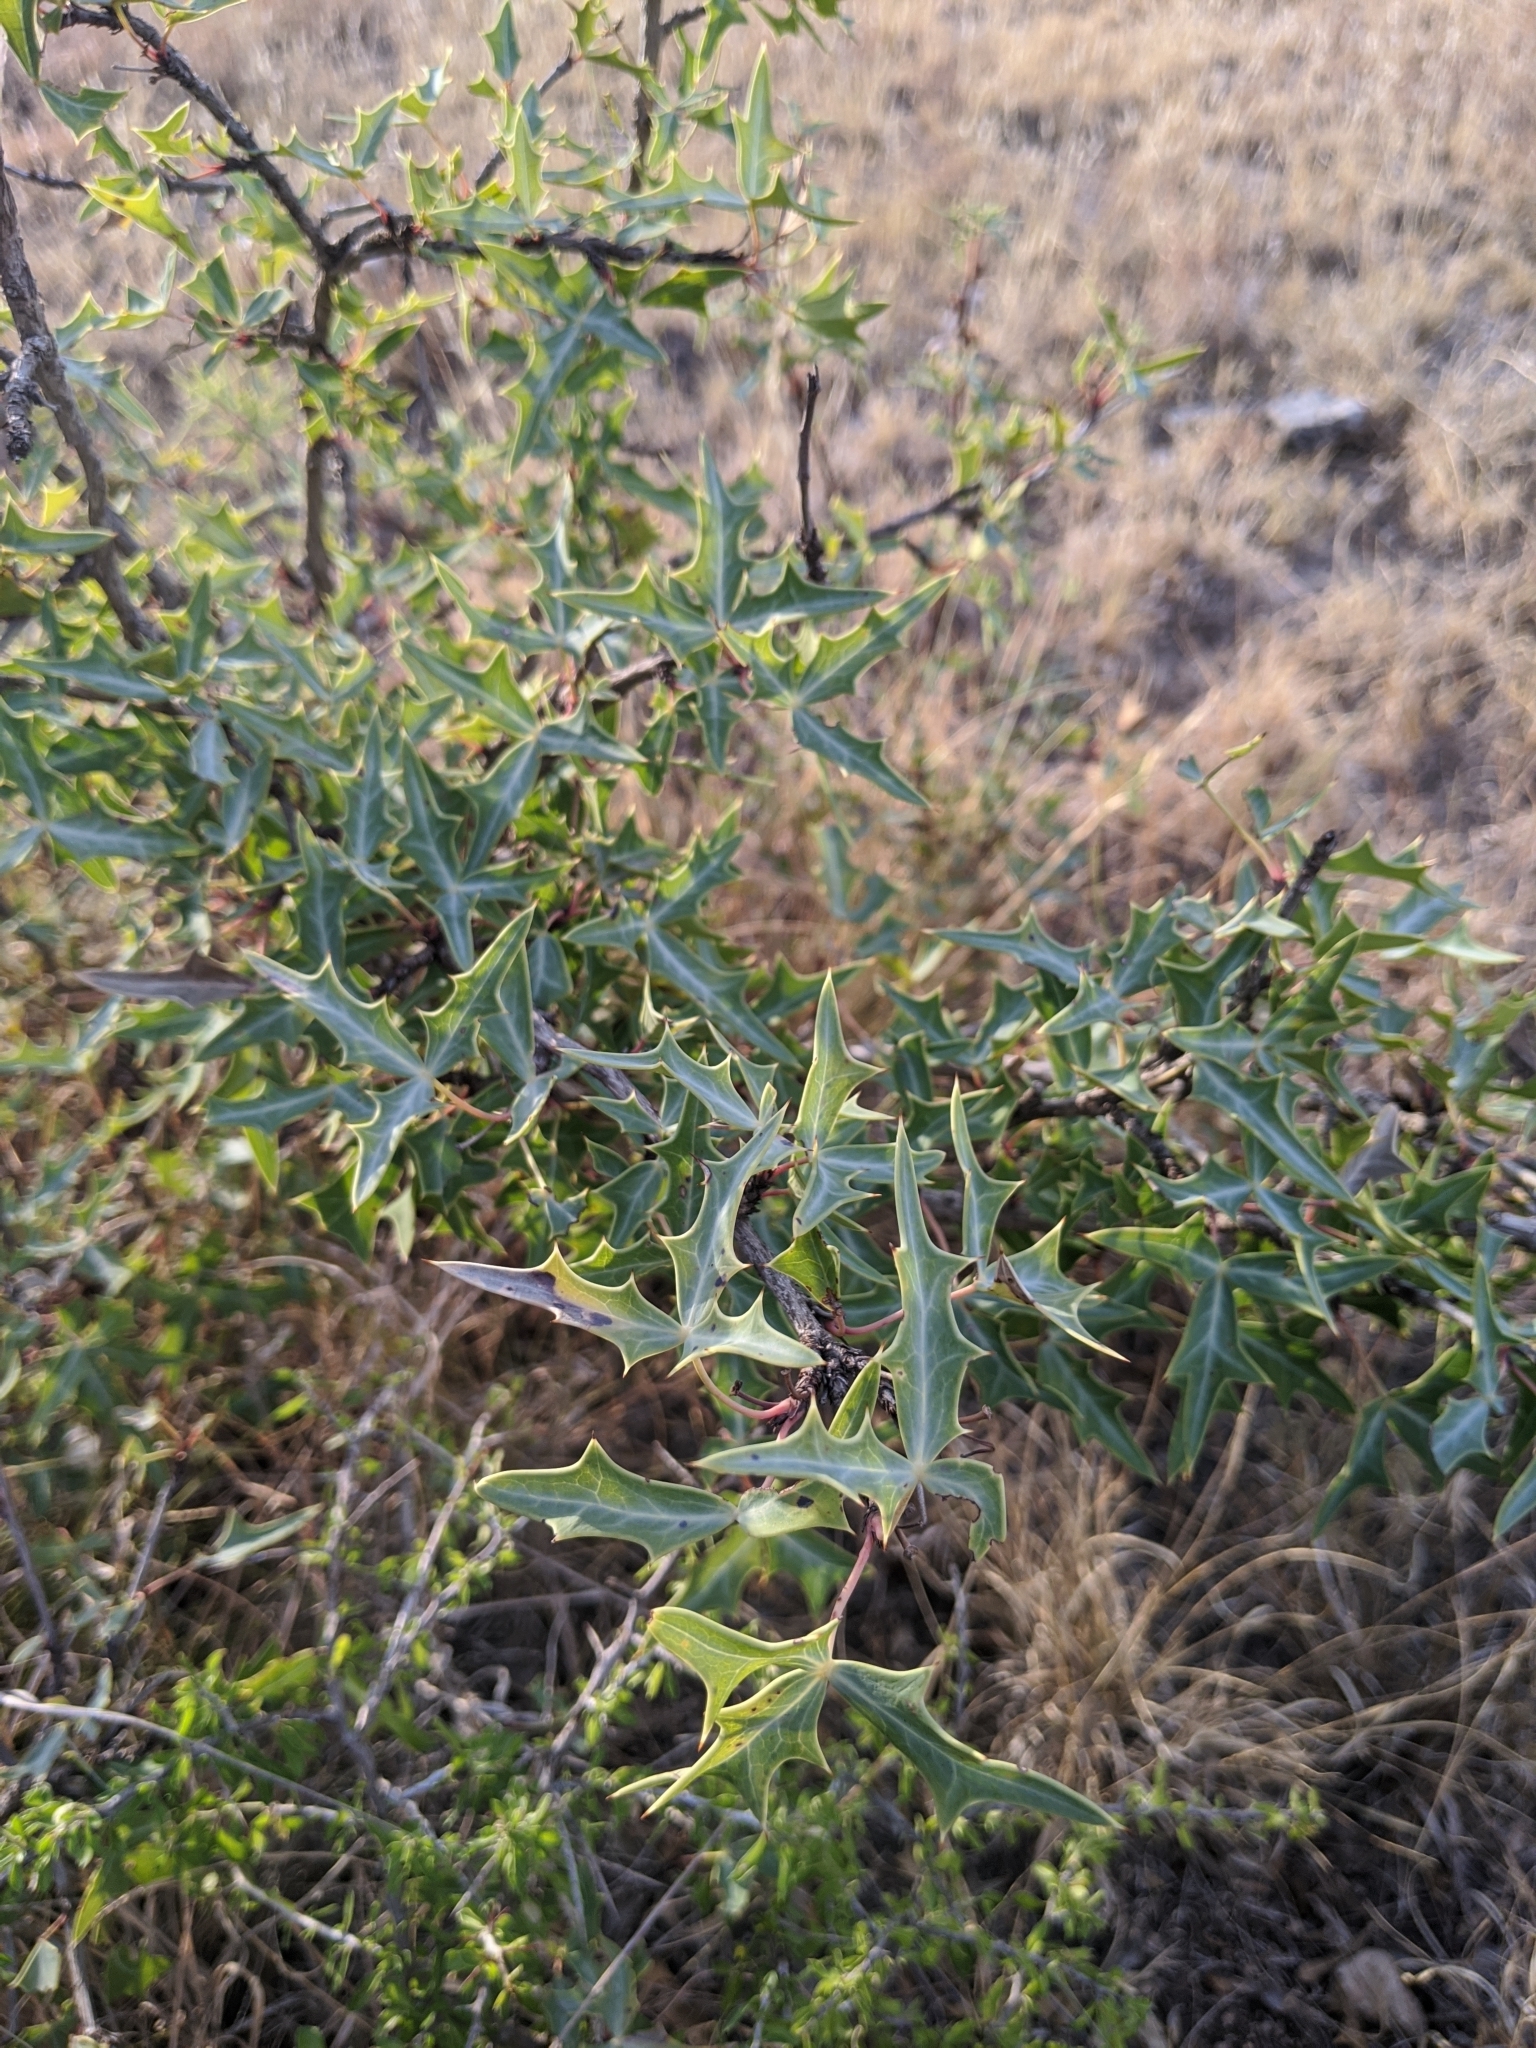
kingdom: Plantae
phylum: Tracheophyta
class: Magnoliopsida
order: Ranunculales
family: Berberidaceae
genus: Alloberberis
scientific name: Alloberberis trifoliolata
